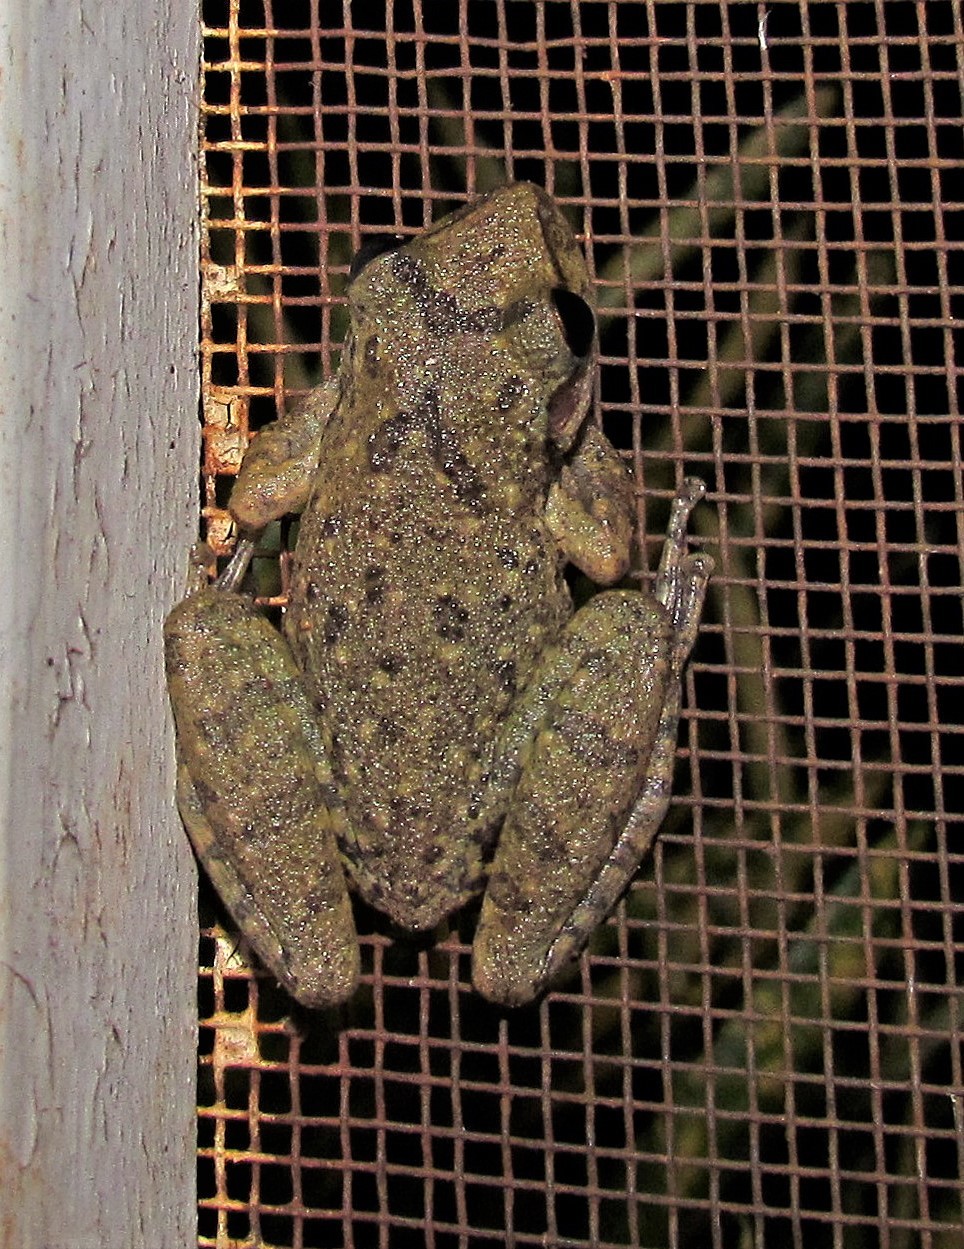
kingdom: Animalia
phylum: Chordata
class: Amphibia
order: Anura
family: Hylidae
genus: Scinax
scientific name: Scinax fuscovarius
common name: Fuscous-blotched treefrog
